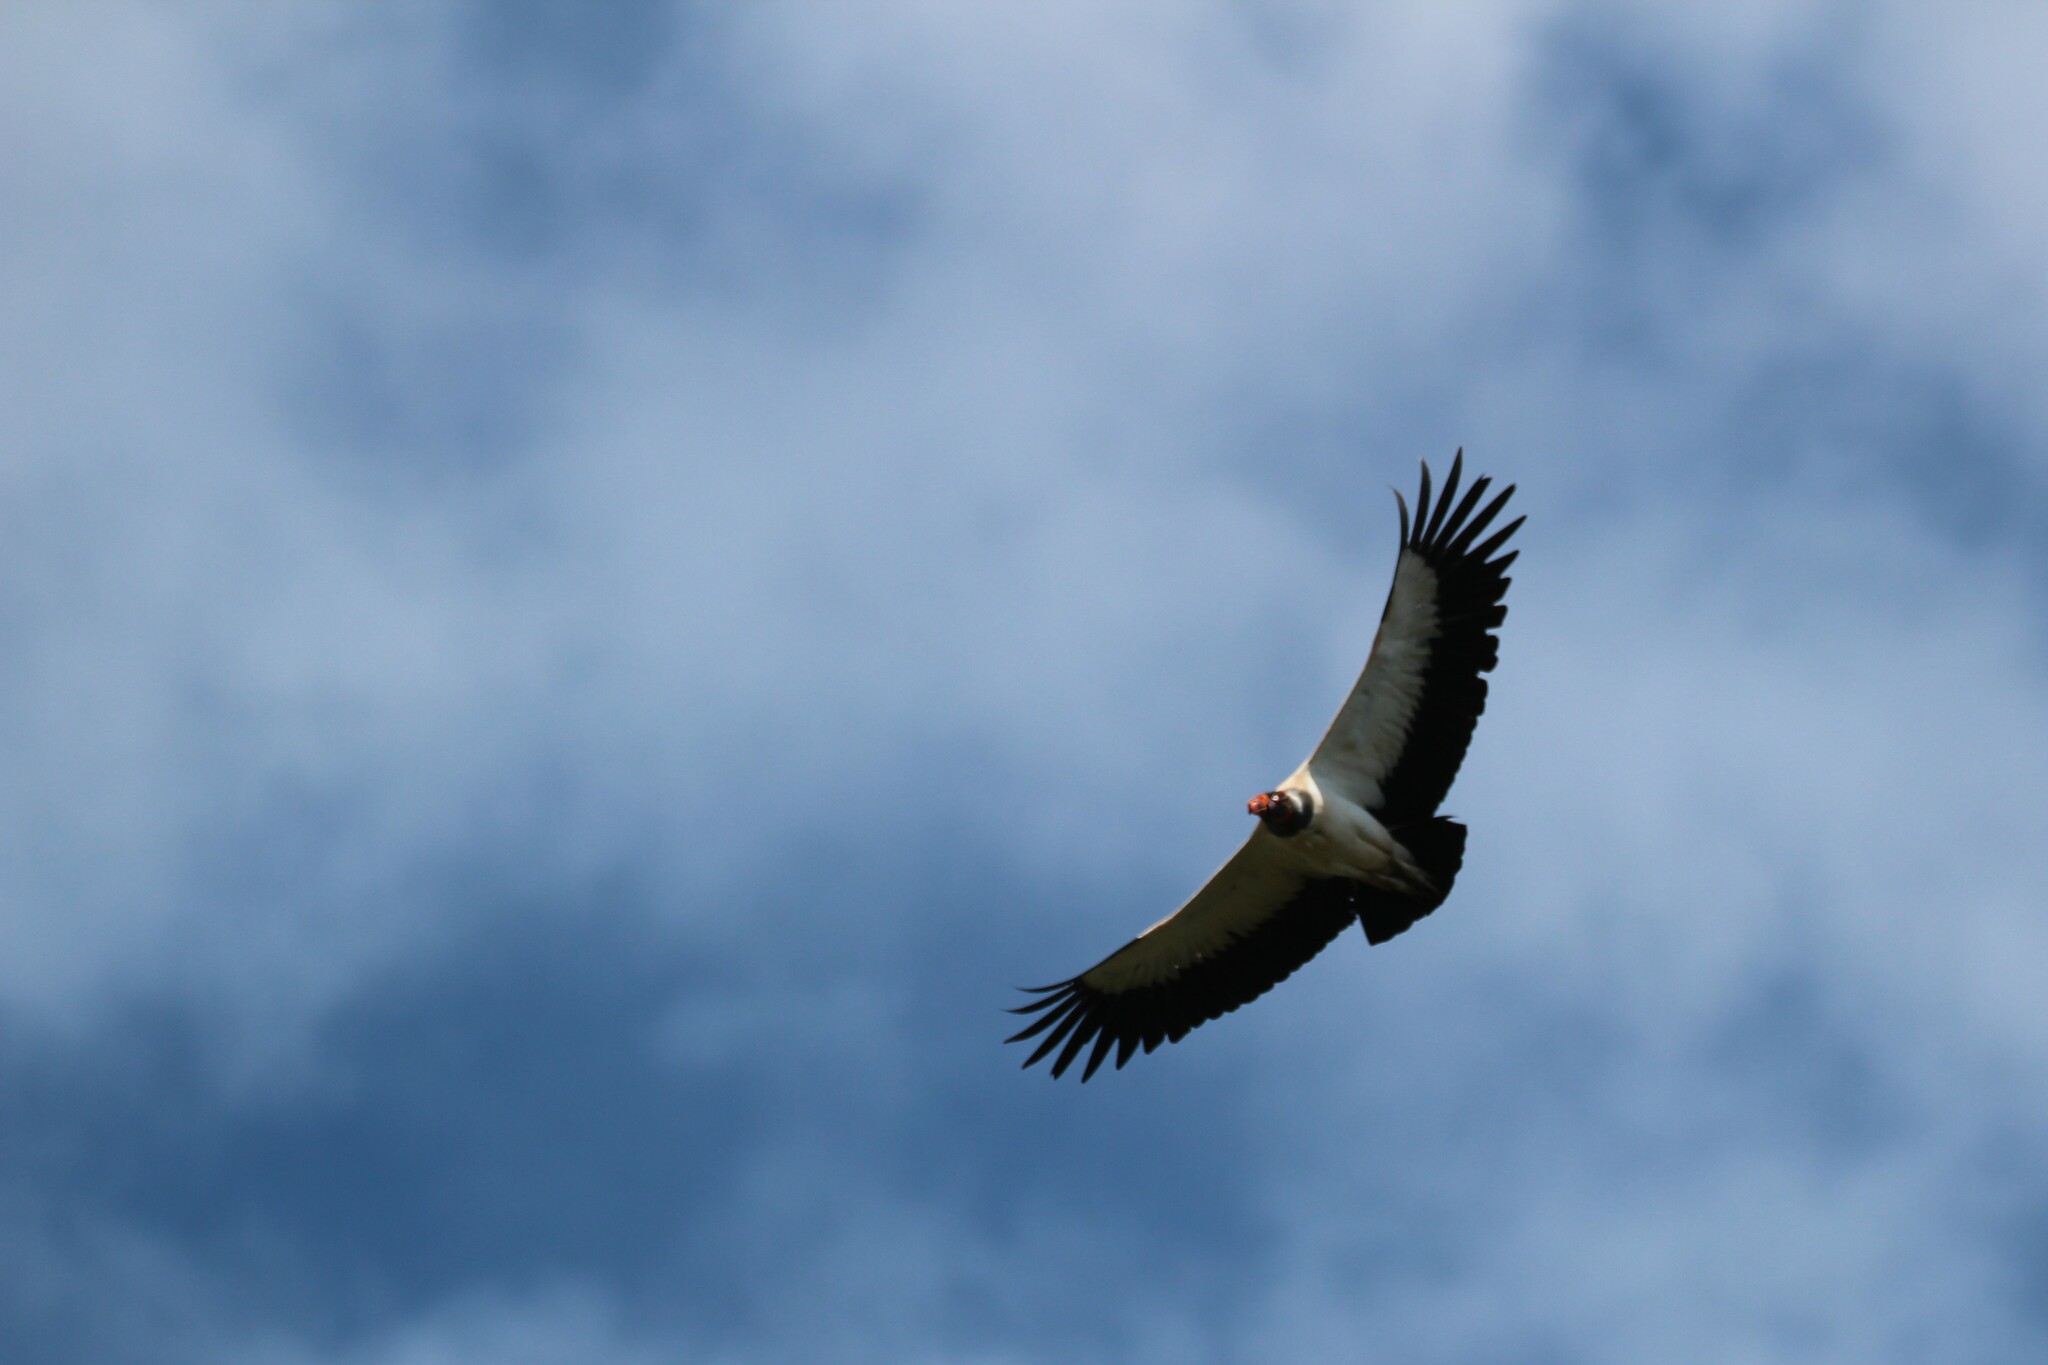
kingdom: Animalia
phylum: Chordata
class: Aves
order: Accipitriformes
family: Cathartidae
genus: Sarcoramphus
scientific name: Sarcoramphus papa
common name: King vulture
